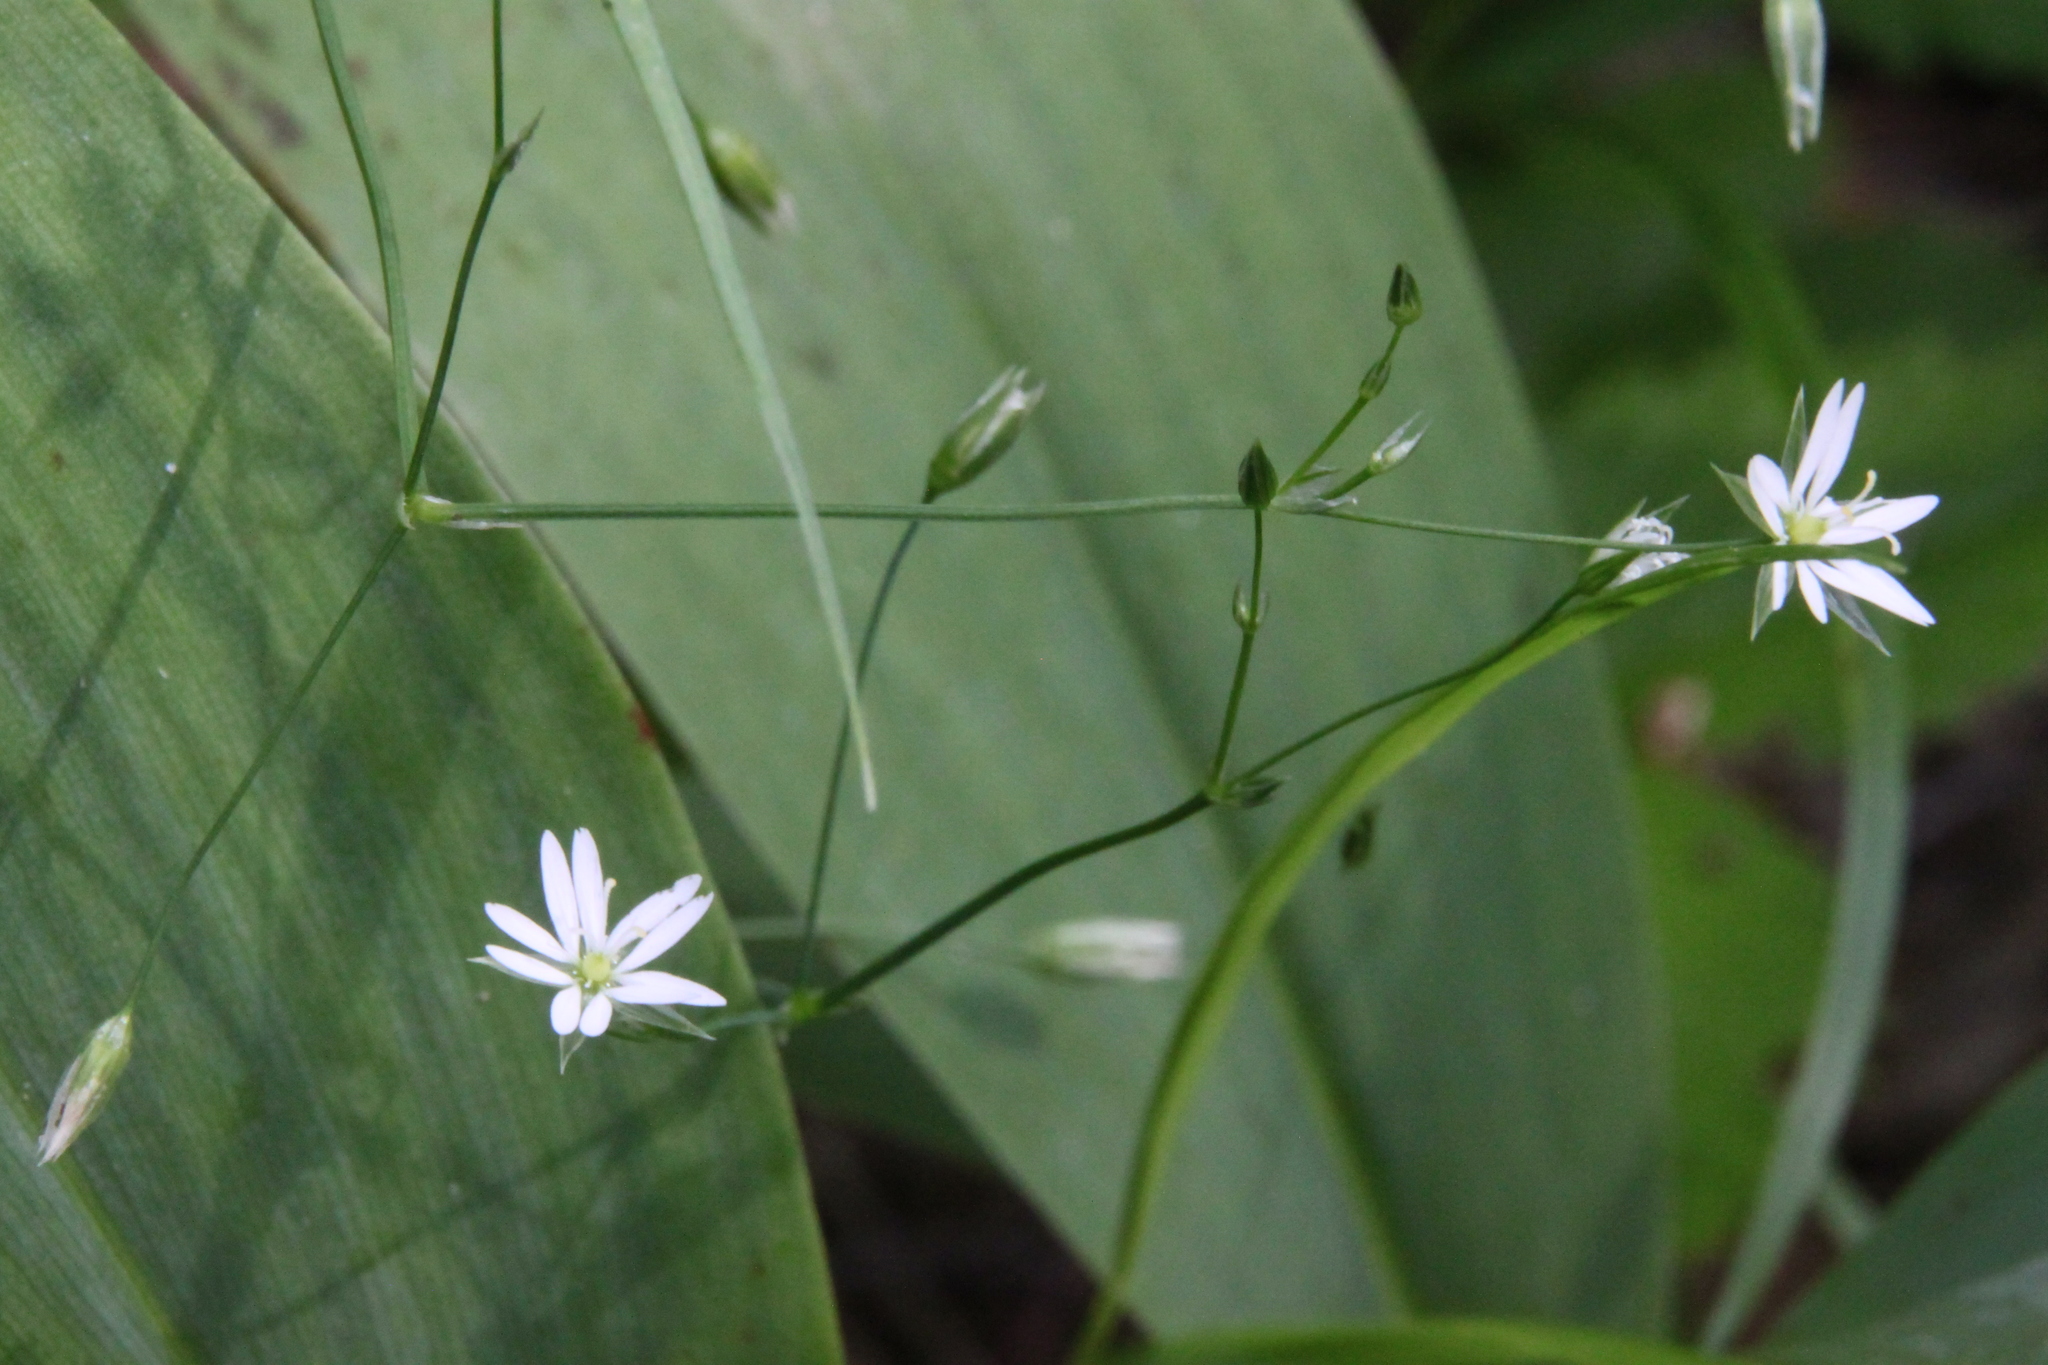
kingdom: Plantae
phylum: Tracheophyta
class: Magnoliopsida
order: Caryophyllales
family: Caryophyllaceae
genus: Stellaria
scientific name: Stellaria graminea
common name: Grass-like starwort
